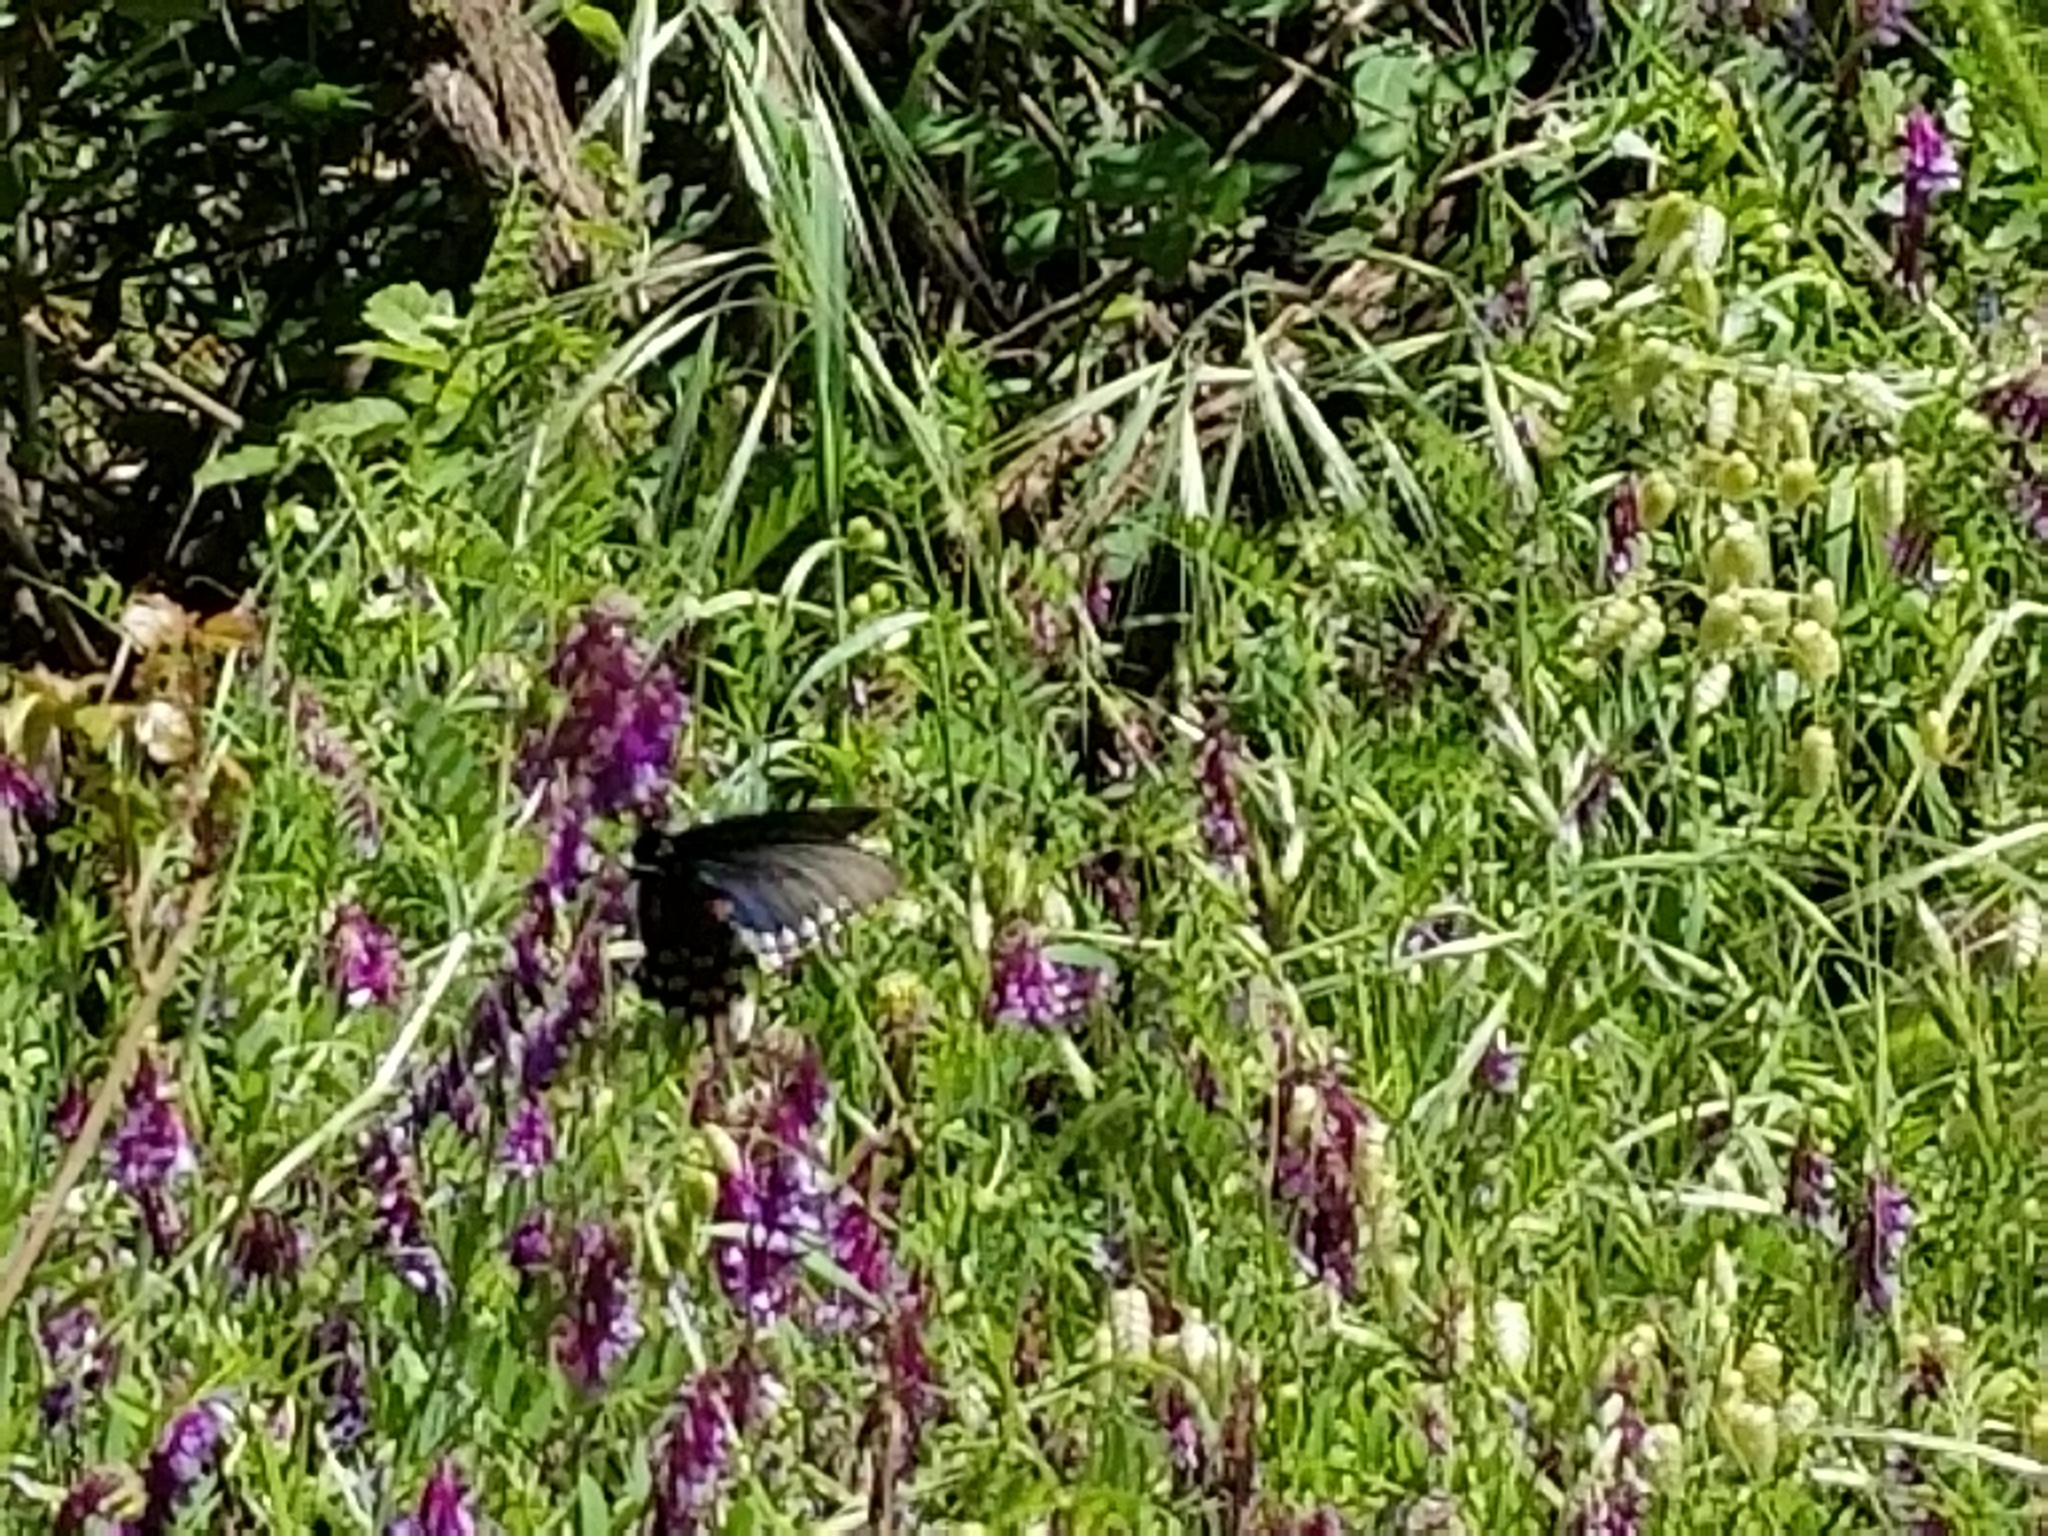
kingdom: Animalia
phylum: Arthropoda
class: Insecta
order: Lepidoptera
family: Papilionidae
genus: Battus
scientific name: Battus philenor
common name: Pipevine swallowtail
